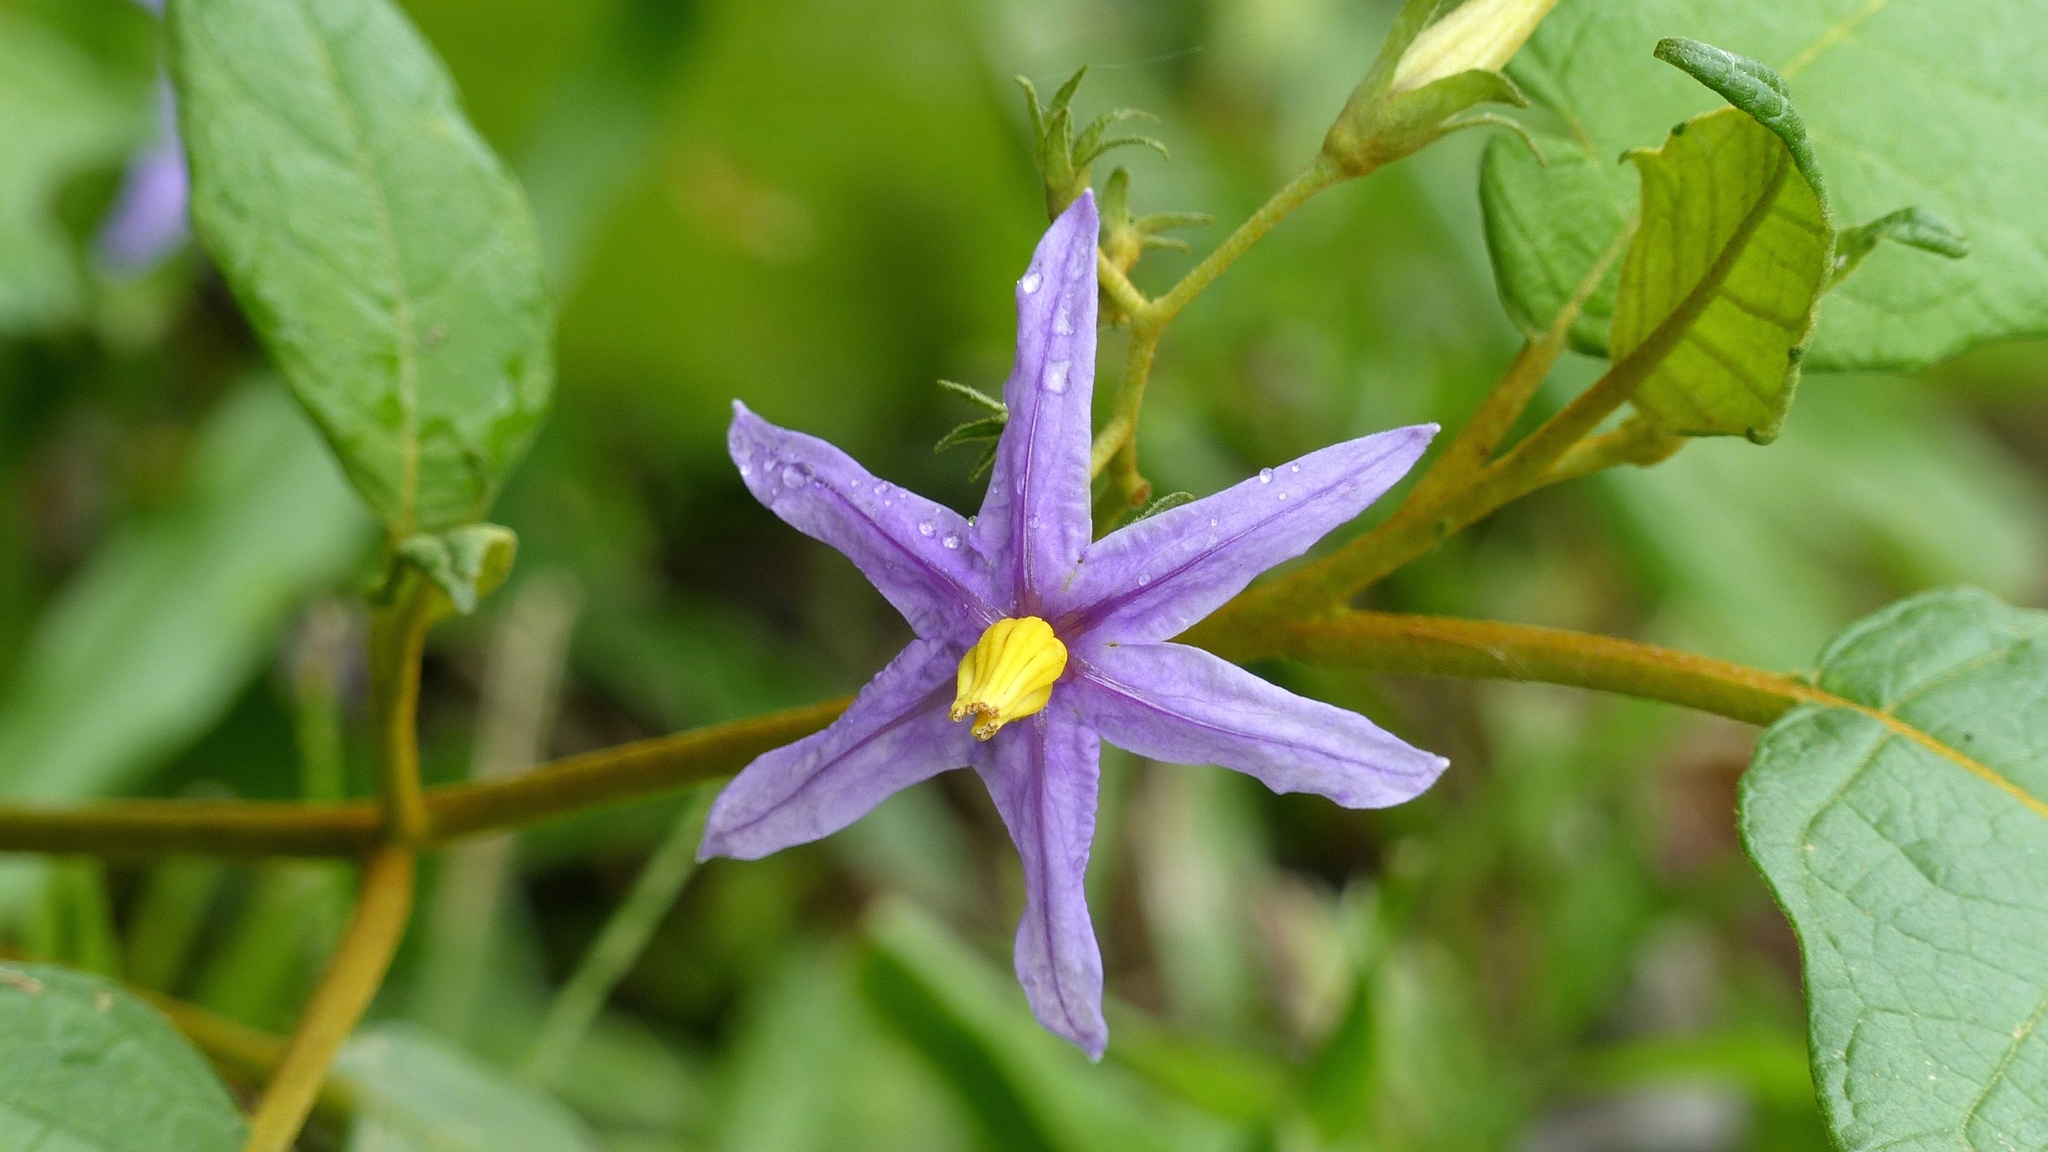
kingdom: Plantae
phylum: Tracheophyta
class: Magnoliopsida
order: Solanales
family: Solanaceae
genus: Solanum
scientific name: Solanum paludosum
